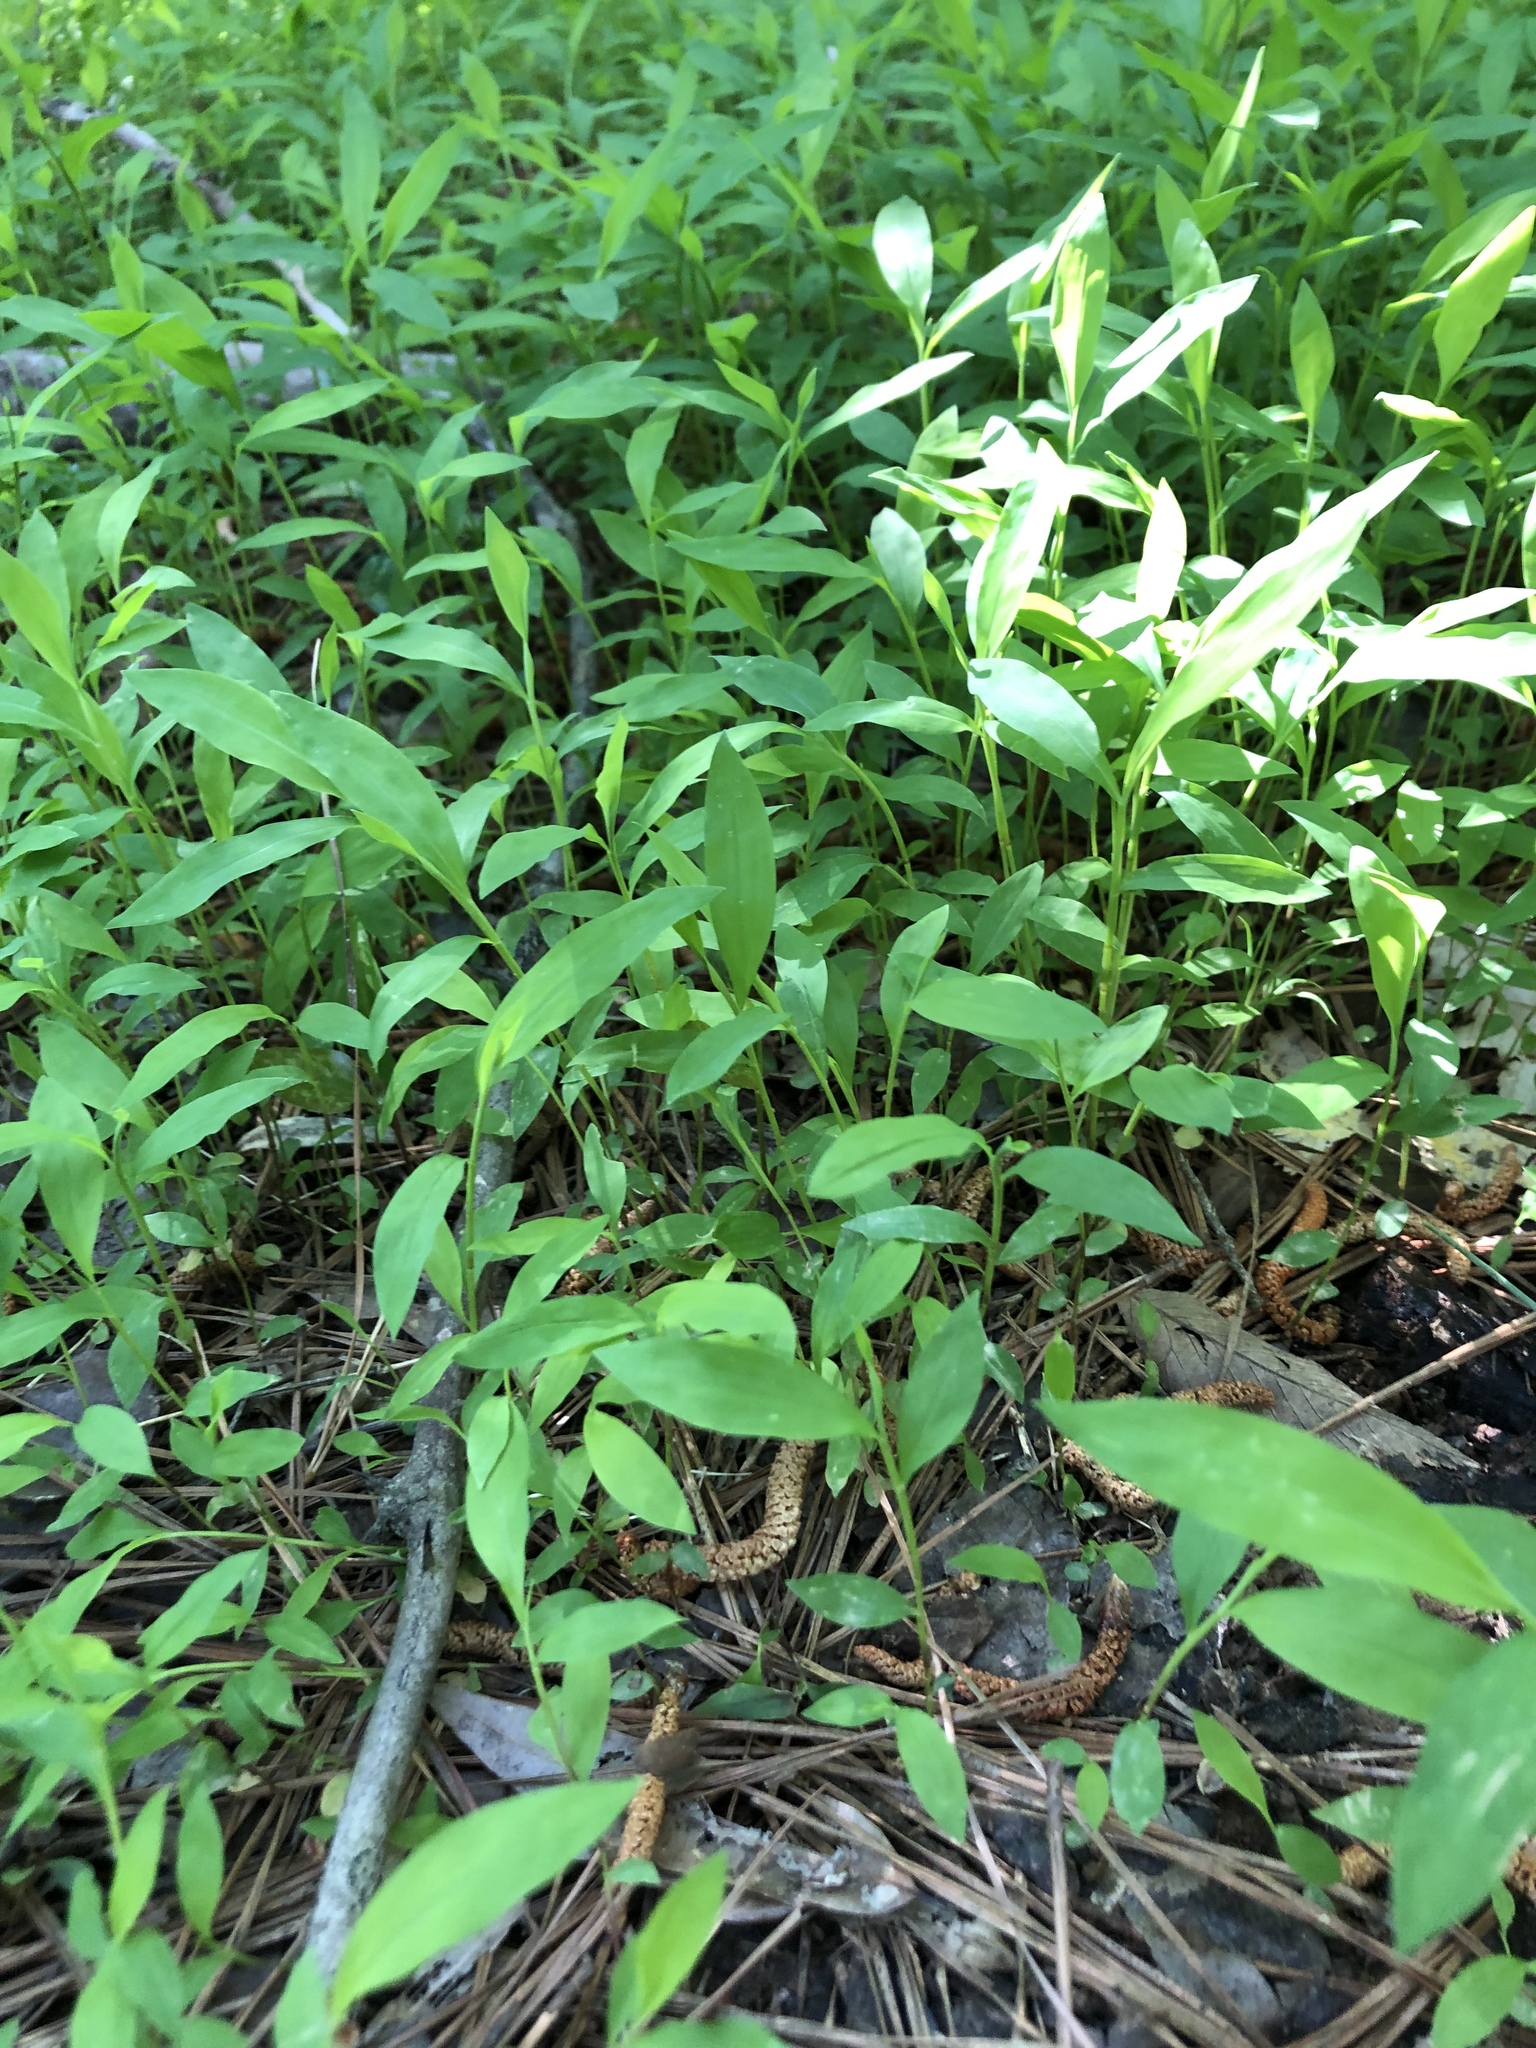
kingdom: Plantae
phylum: Tracheophyta
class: Liliopsida
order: Poales
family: Poaceae
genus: Microstegium
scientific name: Microstegium vimineum
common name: Japanese stiltgrass
